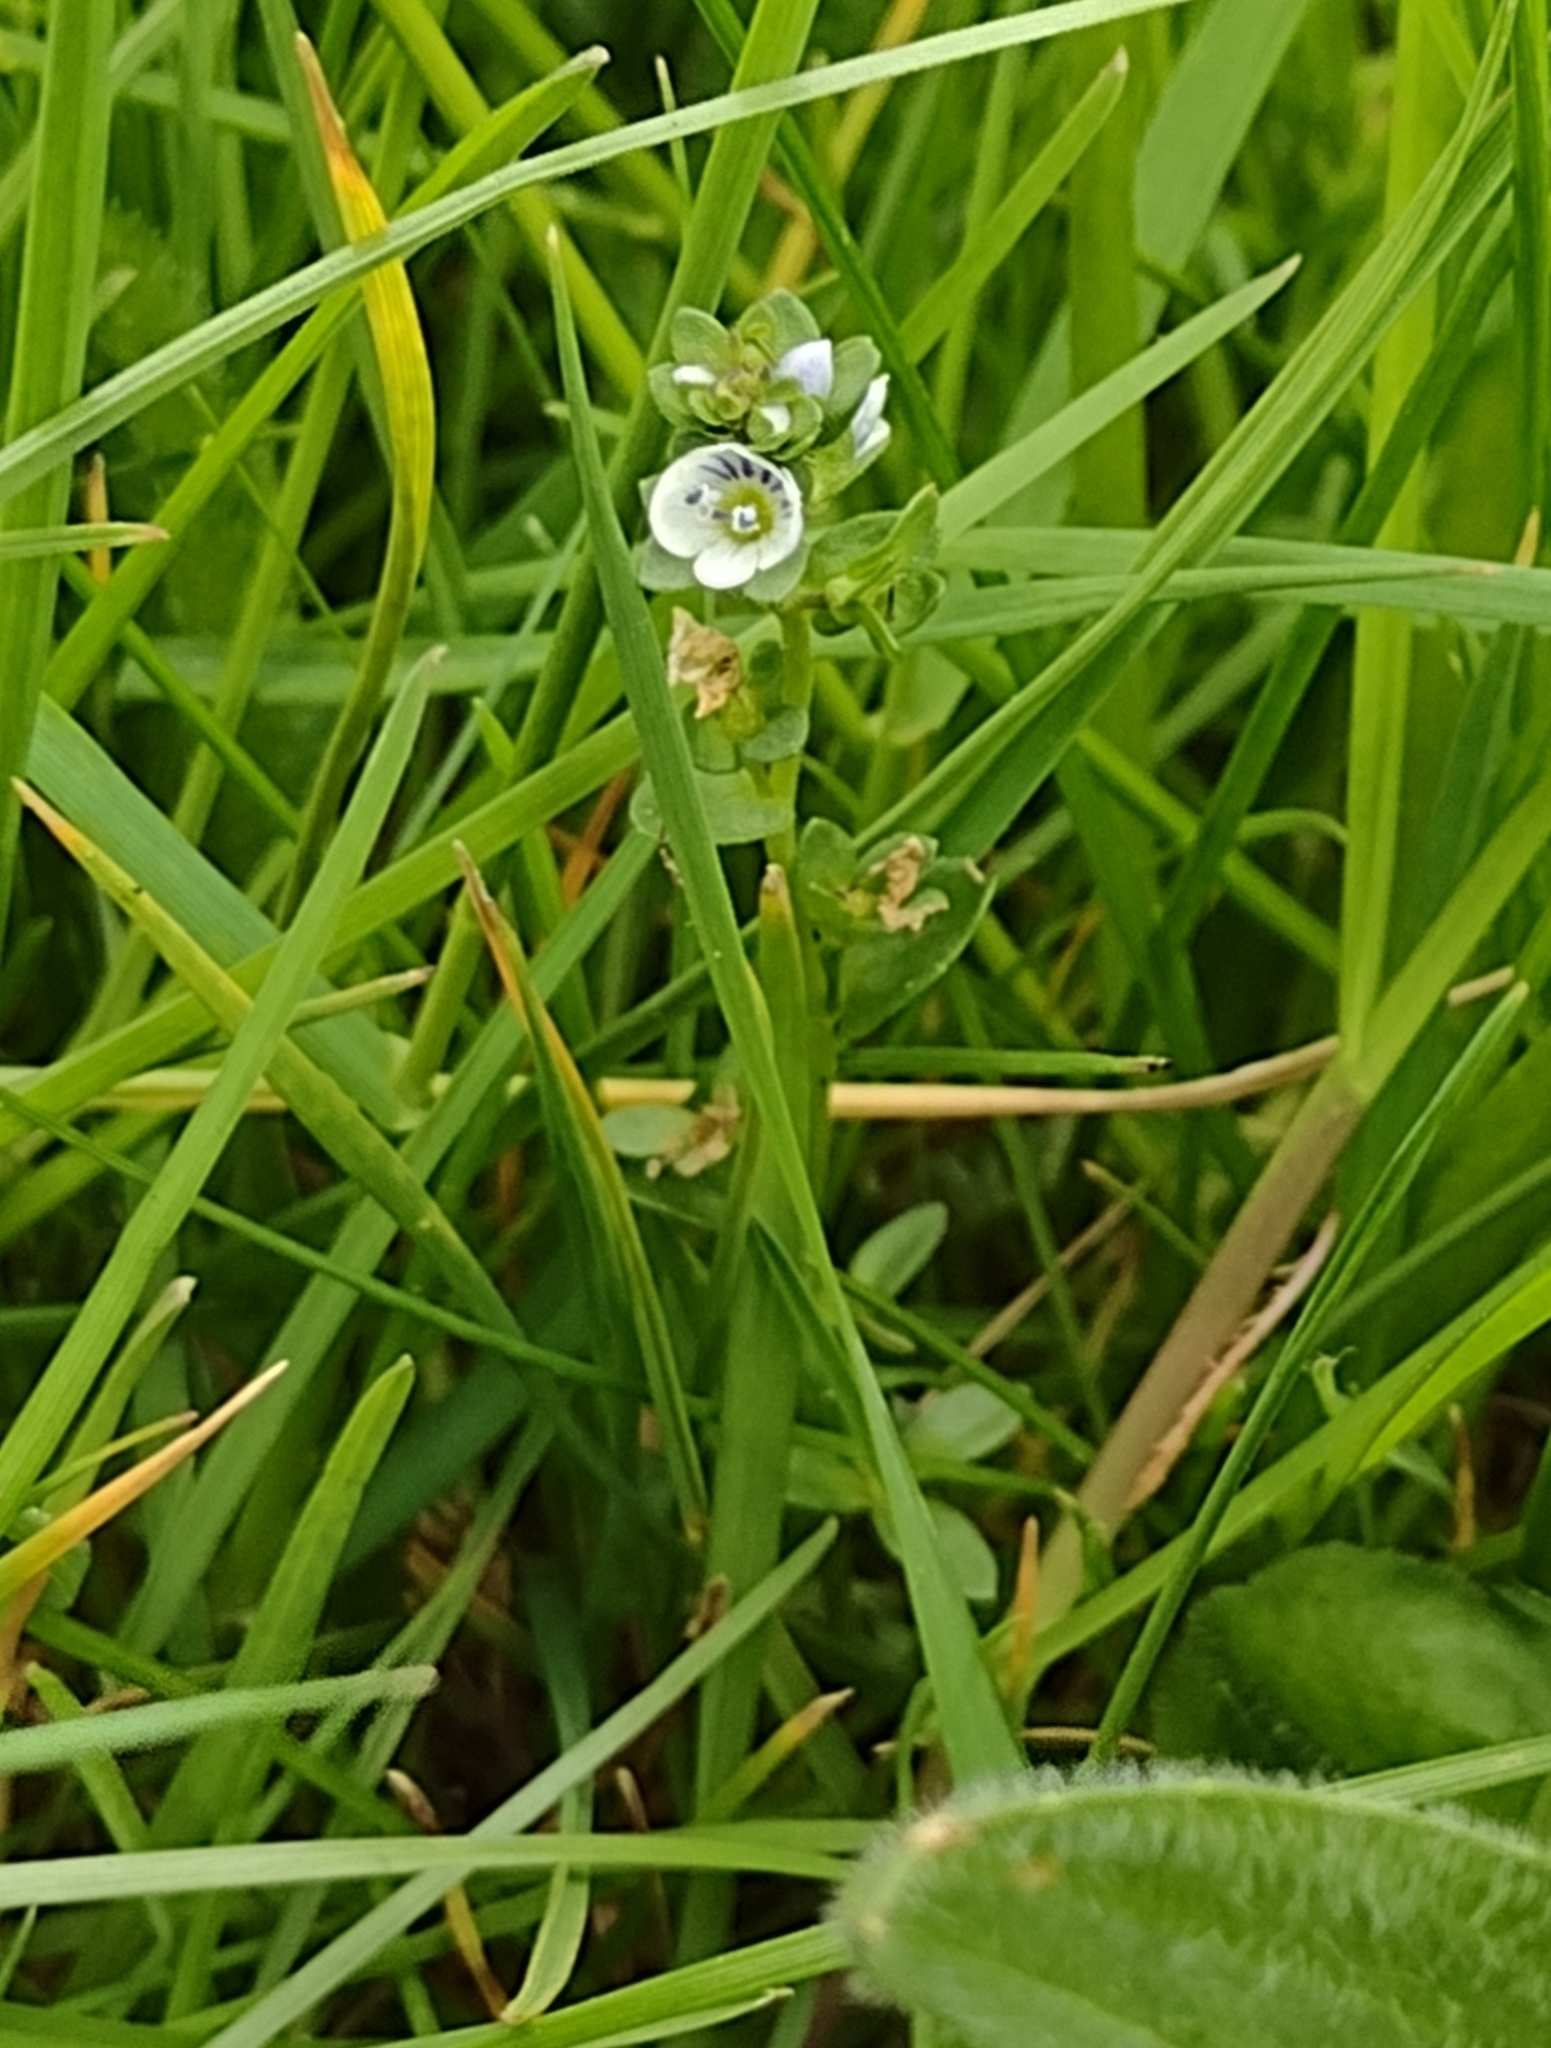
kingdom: Plantae
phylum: Tracheophyta
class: Magnoliopsida
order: Lamiales
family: Plantaginaceae
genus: Veronica
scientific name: Veronica serpyllifolia
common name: Thyme-leaved speedwell
